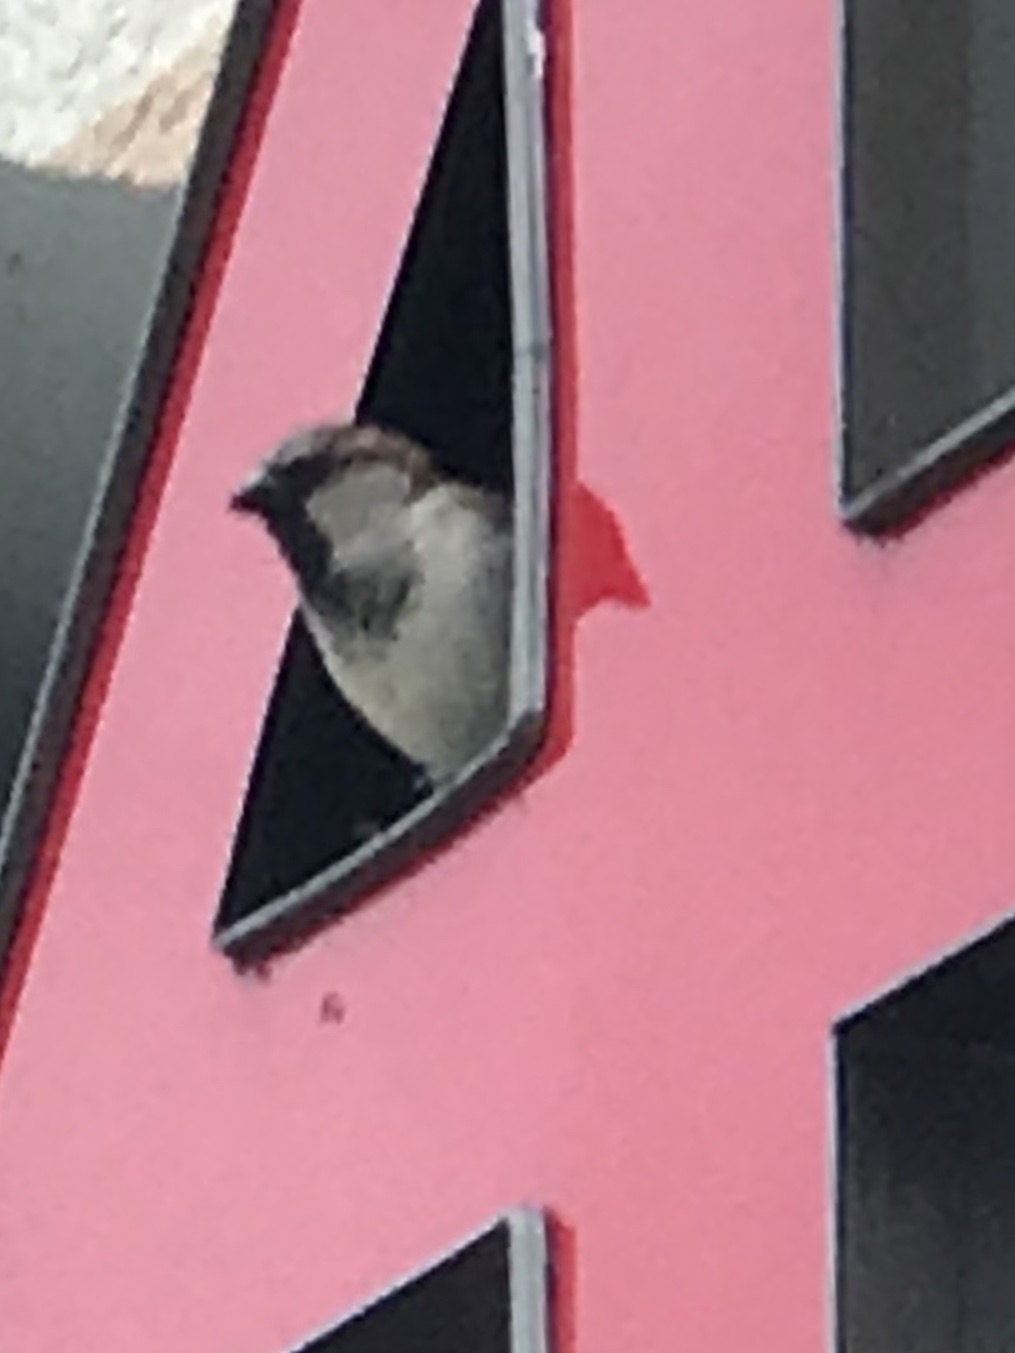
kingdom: Animalia
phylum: Chordata
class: Aves
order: Passeriformes
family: Passeridae
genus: Passer
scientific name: Passer domesticus
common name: House sparrow
